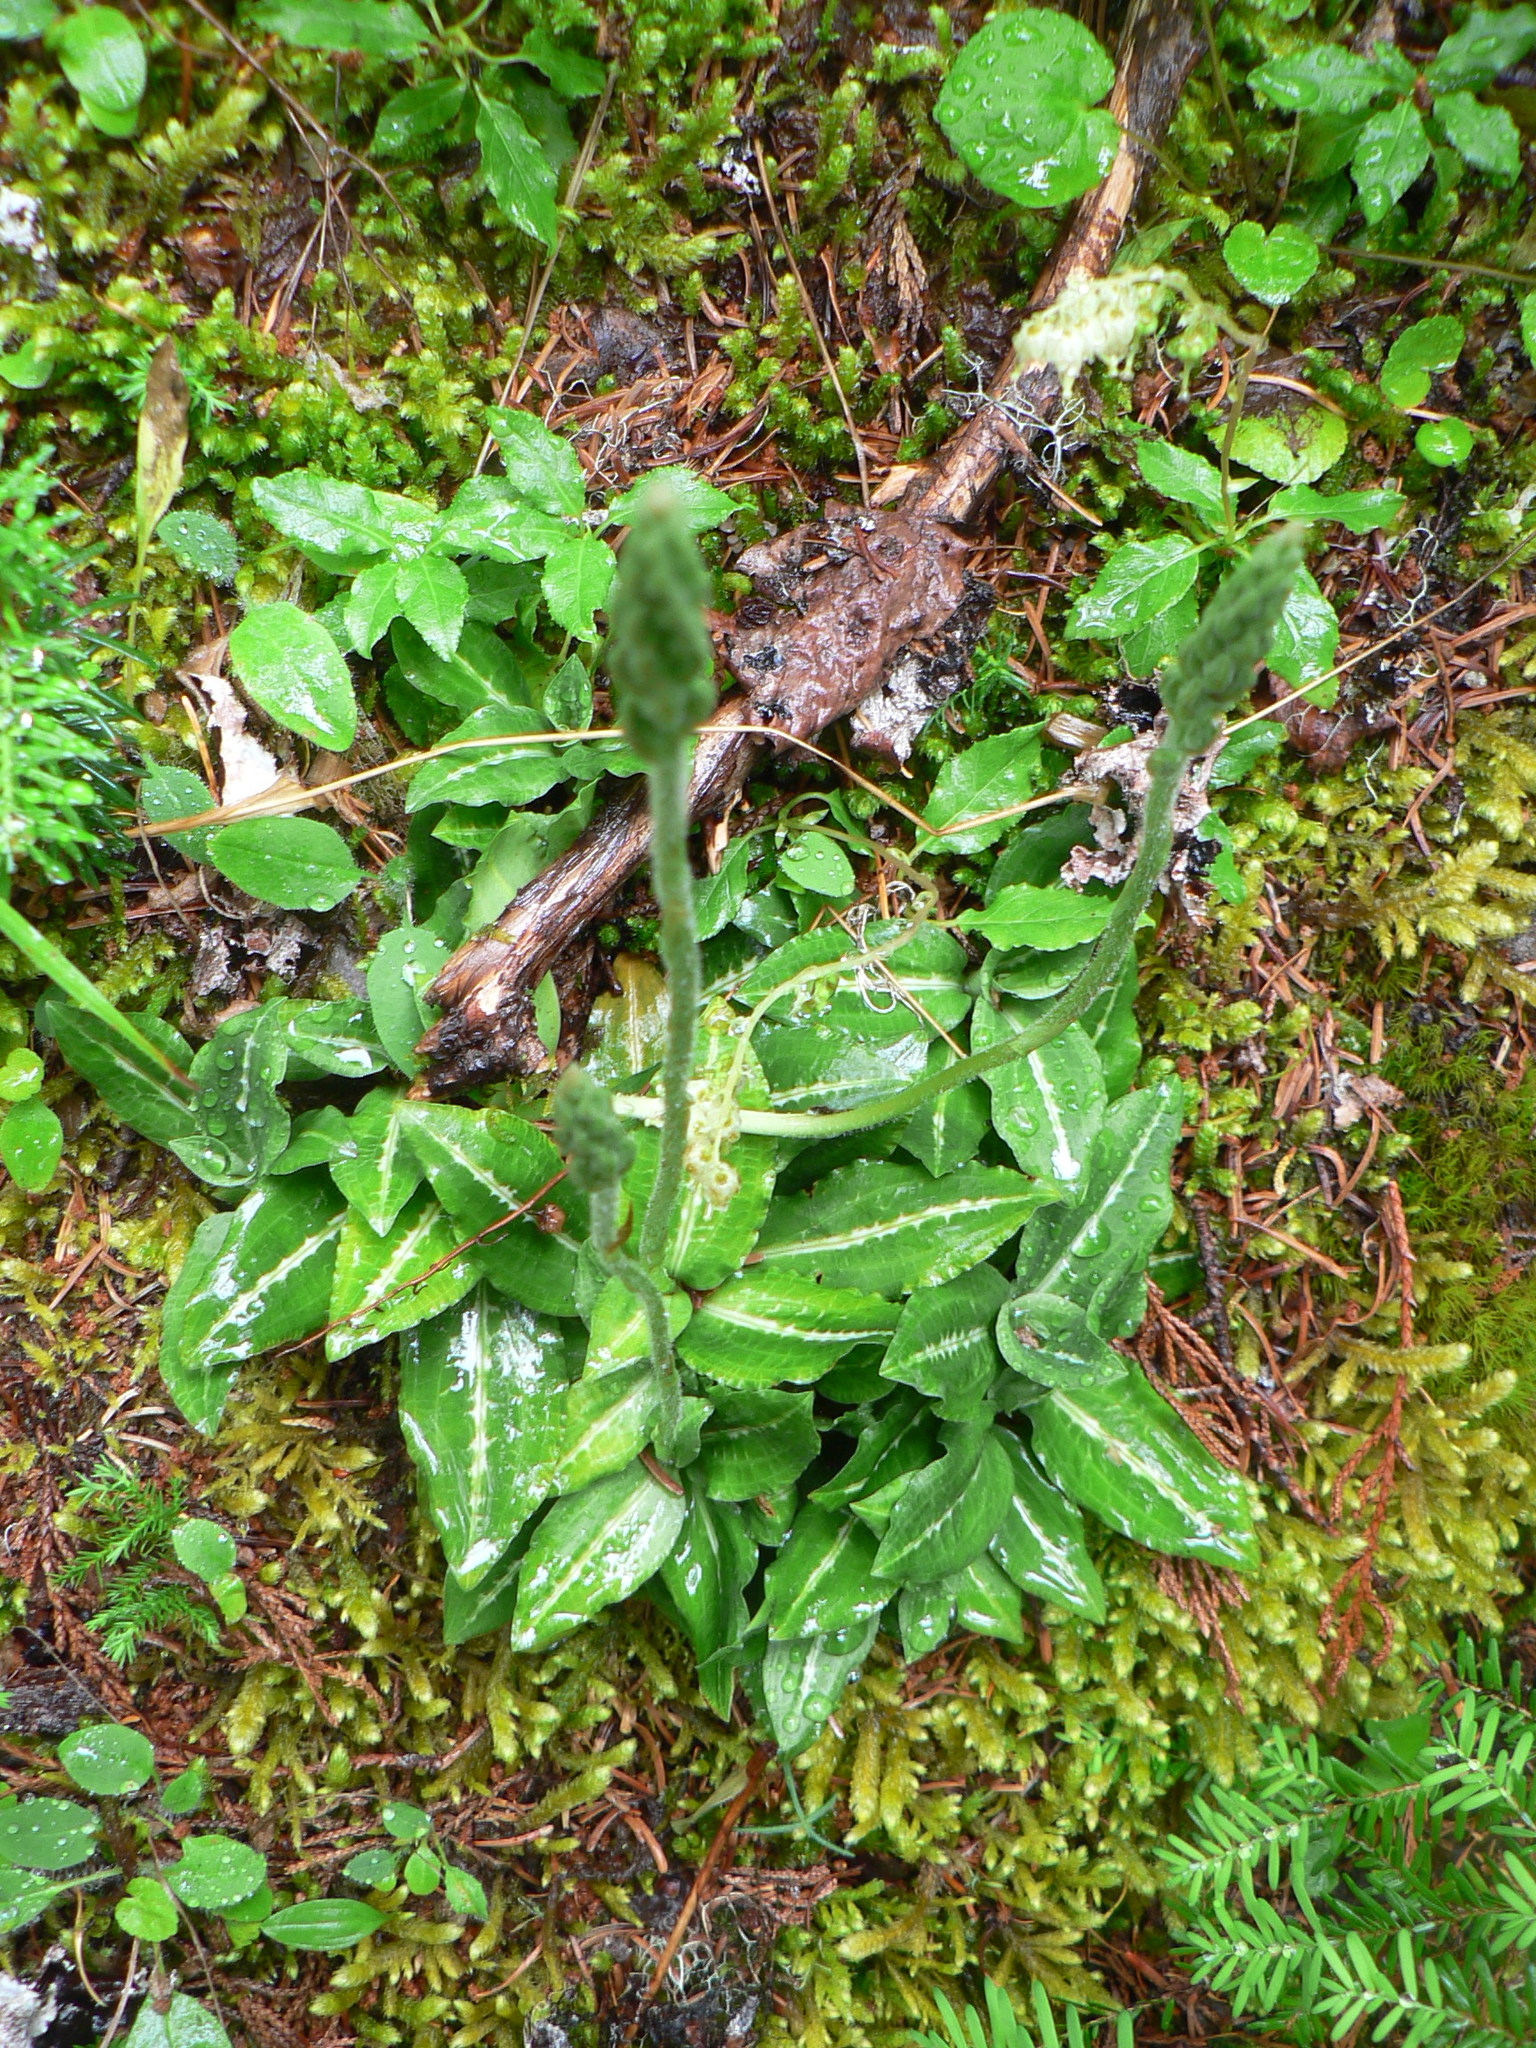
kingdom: Plantae
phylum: Tracheophyta
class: Liliopsida
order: Asparagales
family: Orchidaceae
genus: Goodyera
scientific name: Goodyera oblongifolia
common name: Giant rattlesnake-plantain
